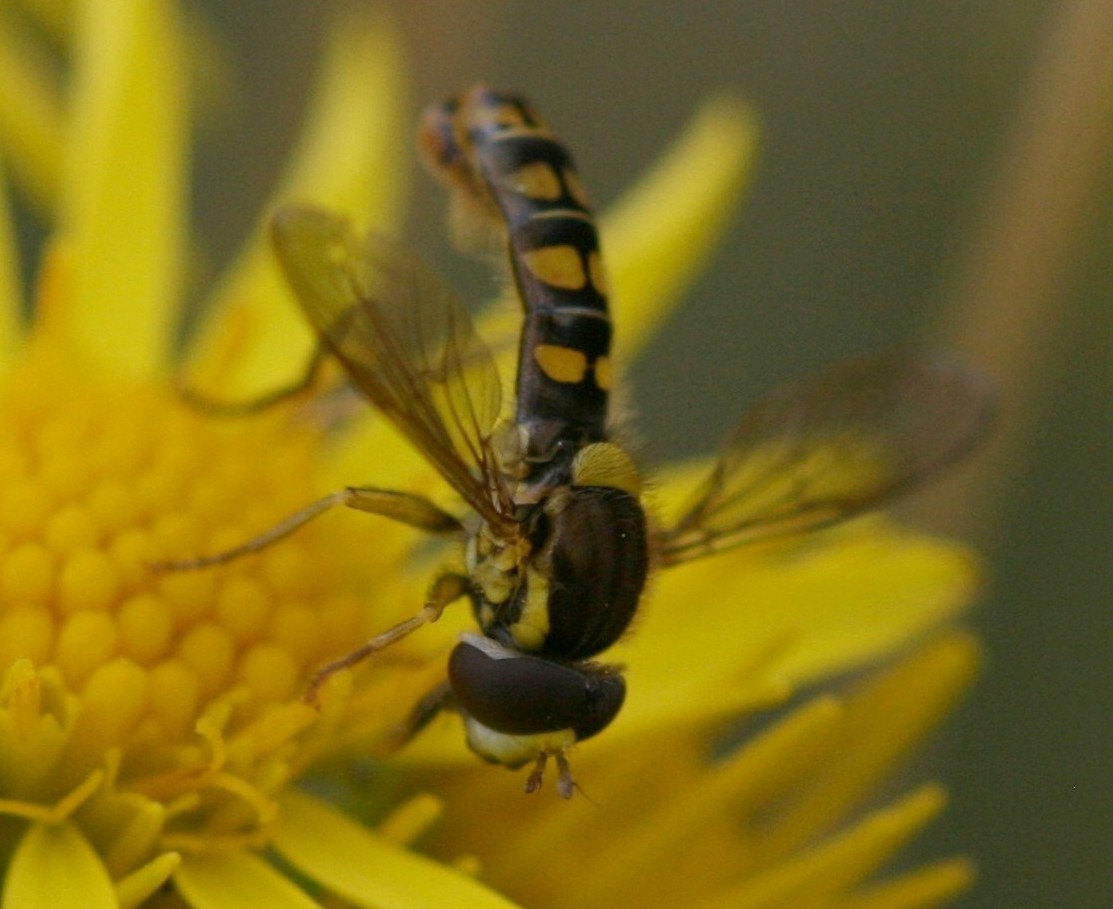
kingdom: Animalia
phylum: Arthropoda
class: Insecta
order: Diptera
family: Syrphidae
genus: Sphaerophoria
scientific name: Sphaerophoria
